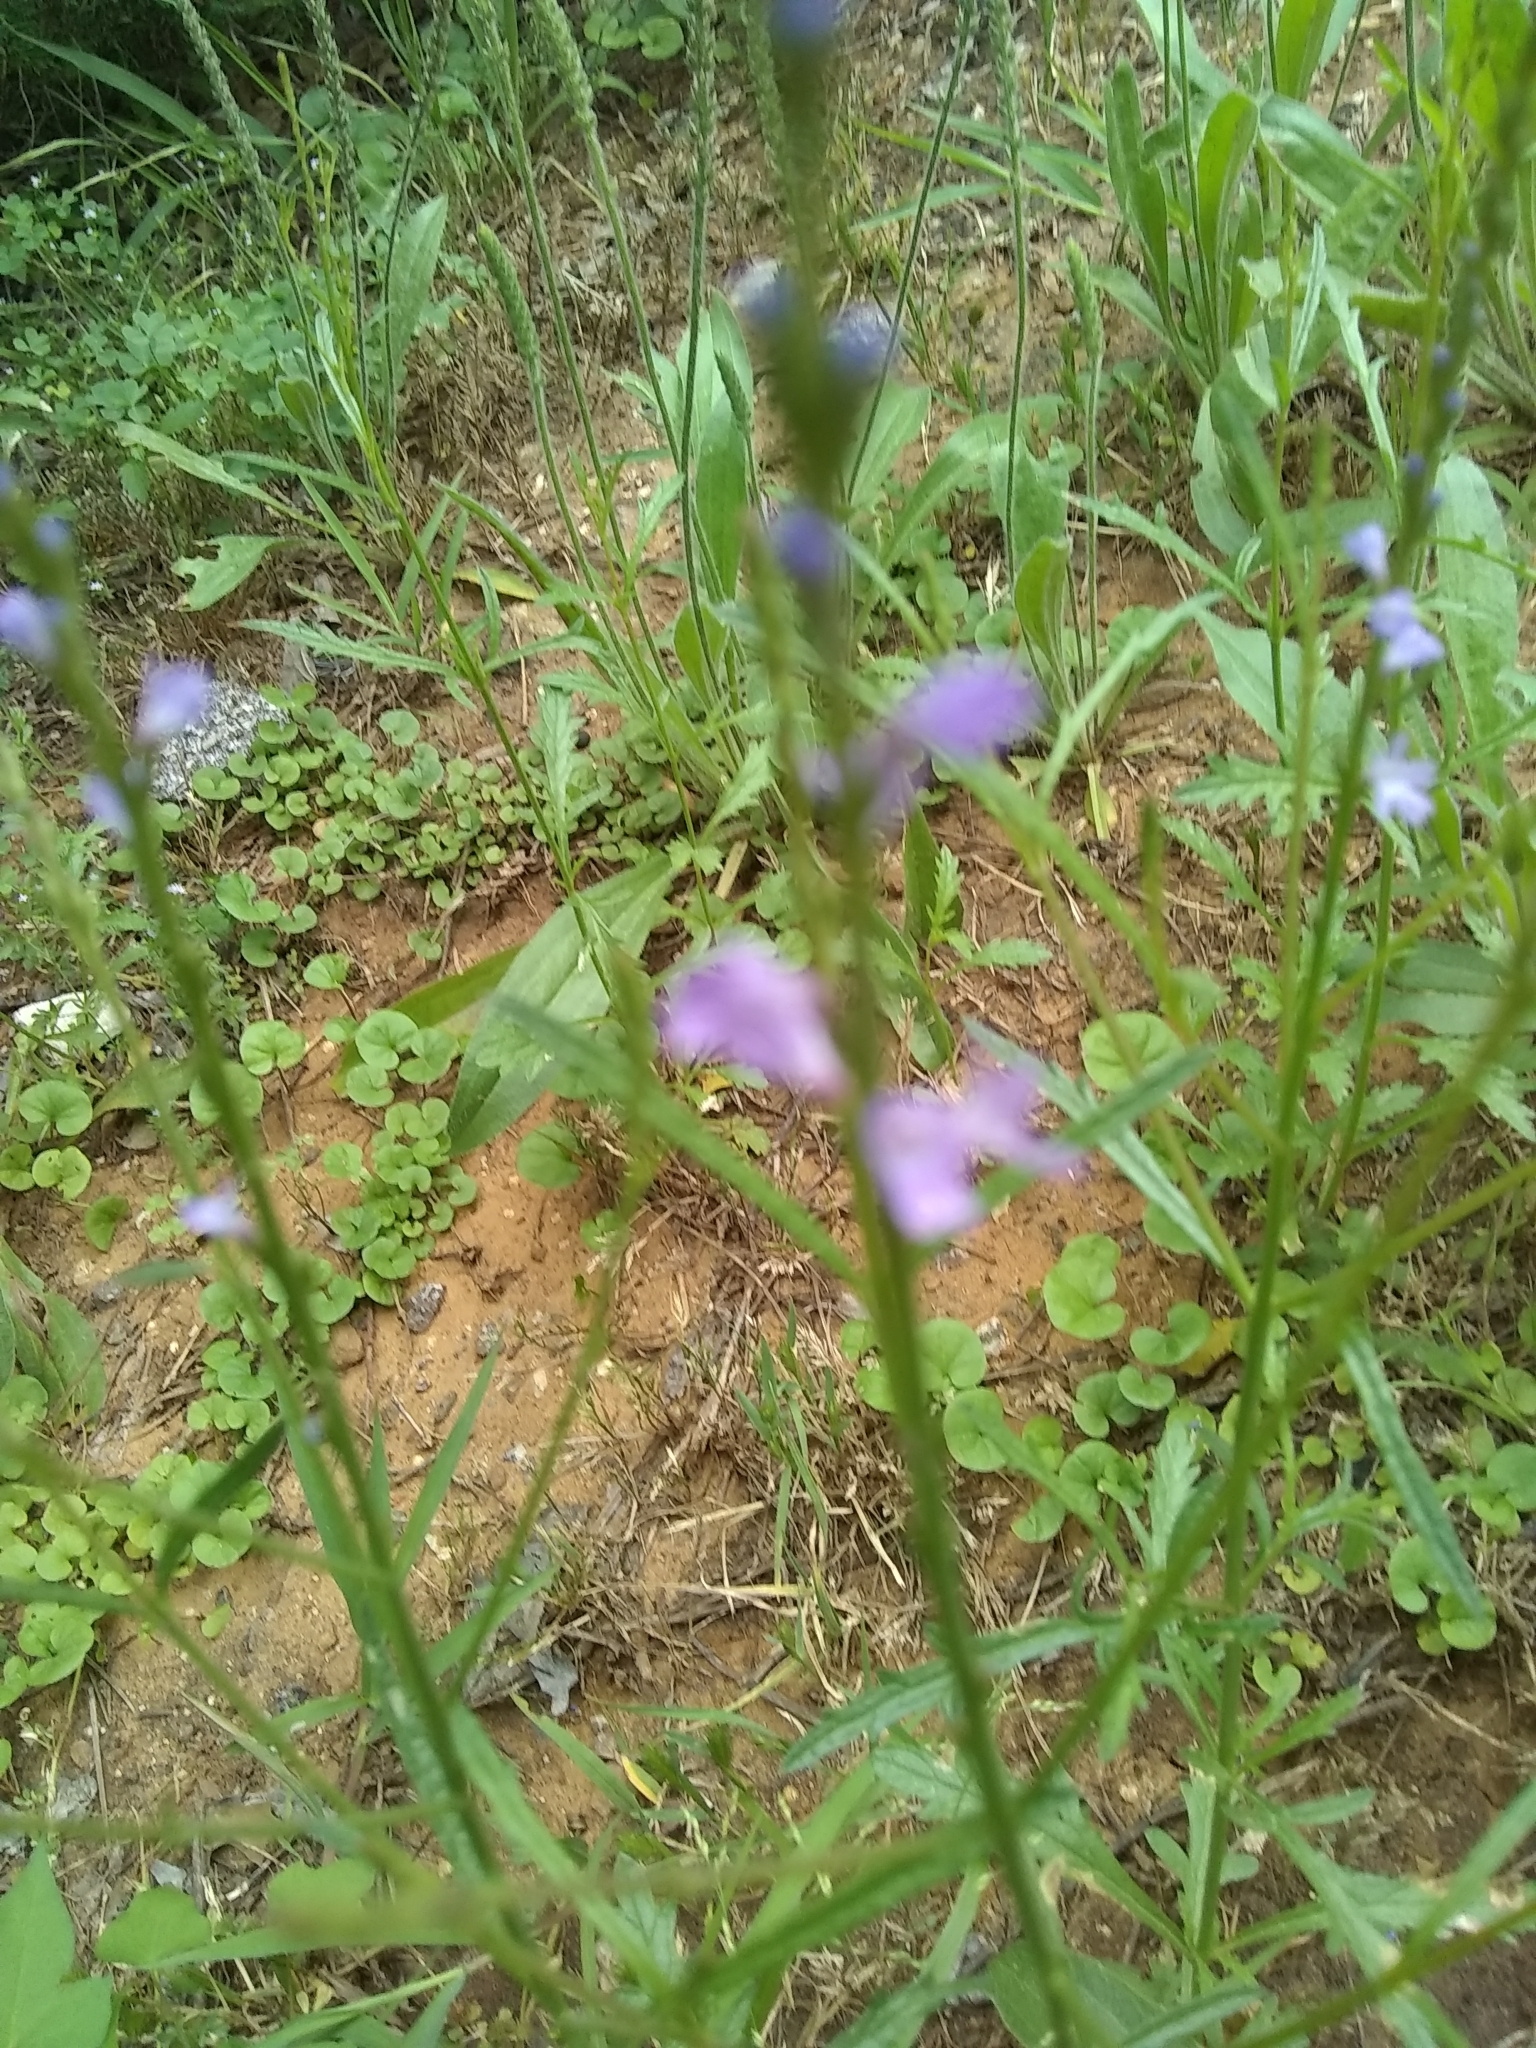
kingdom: Plantae
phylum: Tracheophyta
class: Magnoliopsida
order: Lamiales
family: Verbenaceae
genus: Verbena
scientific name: Verbena halei
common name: Texas vervain
